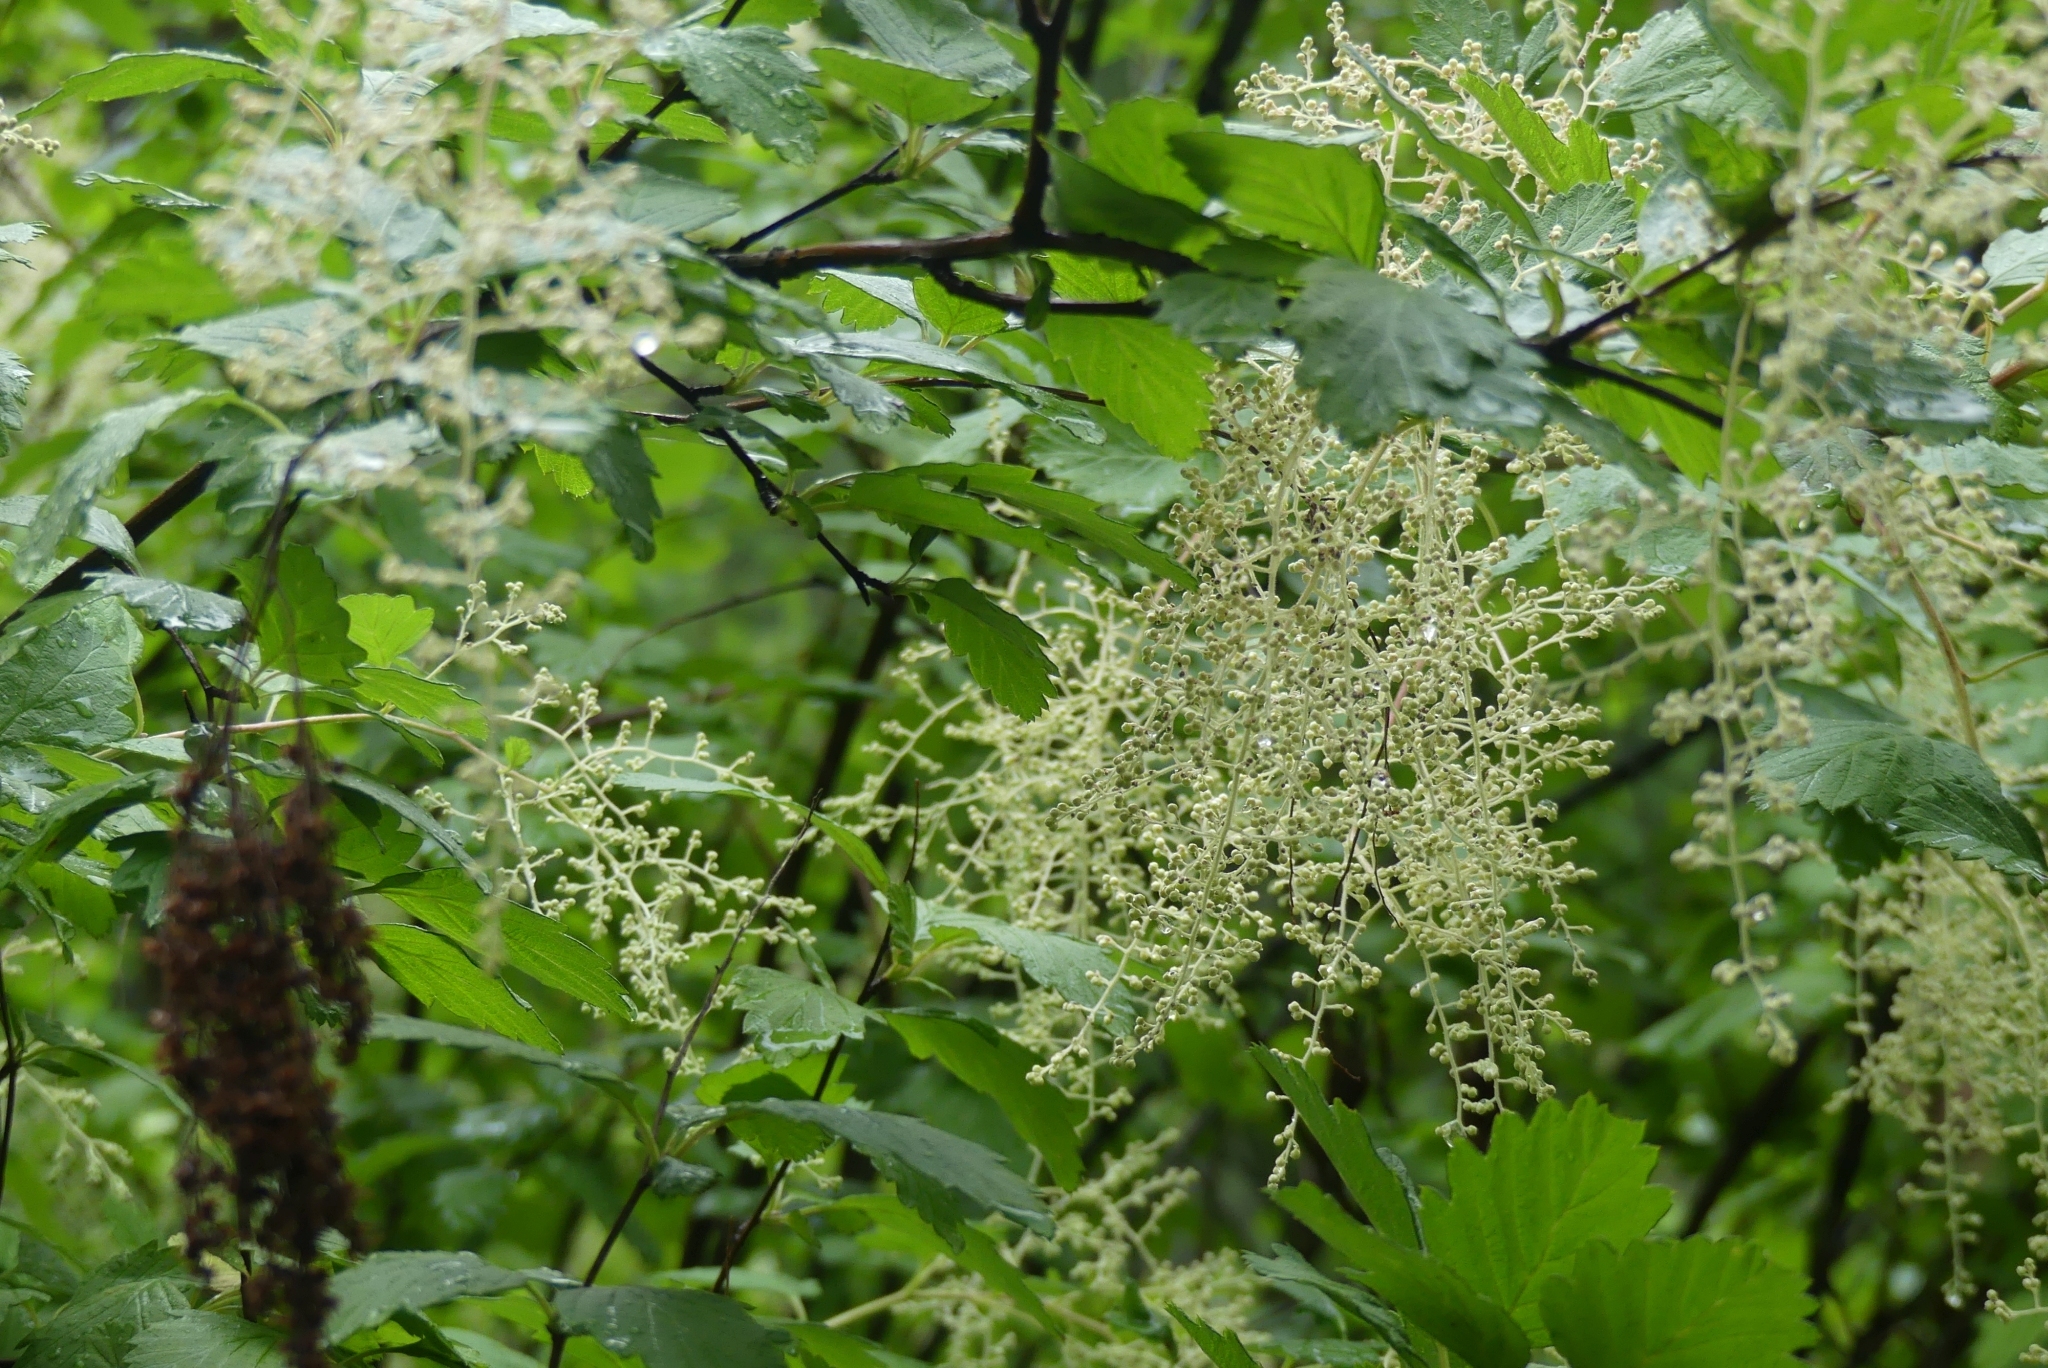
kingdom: Plantae
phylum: Tracheophyta
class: Magnoliopsida
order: Rosales
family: Rosaceae
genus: Holodiscus
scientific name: Holodiscus discolor
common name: Oceanspray
